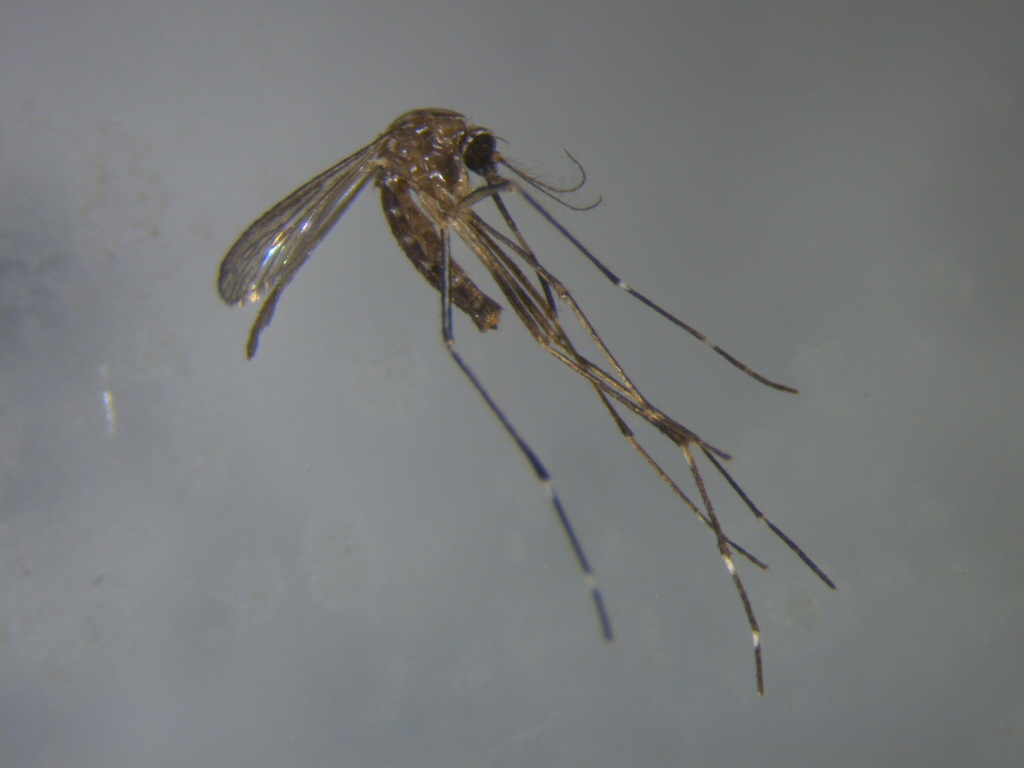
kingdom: Animalia
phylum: Arthropoda
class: Insecta
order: Diptera
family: Culicidae
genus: Aedes
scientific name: Aedes notoscriptus
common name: Australian backyard mosquito
